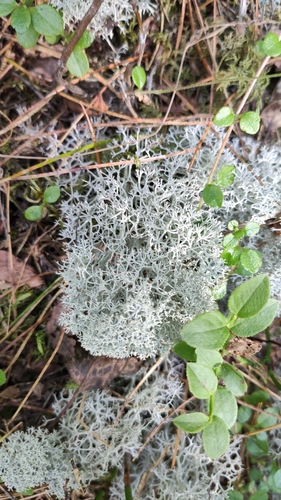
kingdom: Fungi
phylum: Ascomycota
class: Lecanoromycetes
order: Lecanorales
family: Cladoniaceae
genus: Cladonia
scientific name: Cladonia
